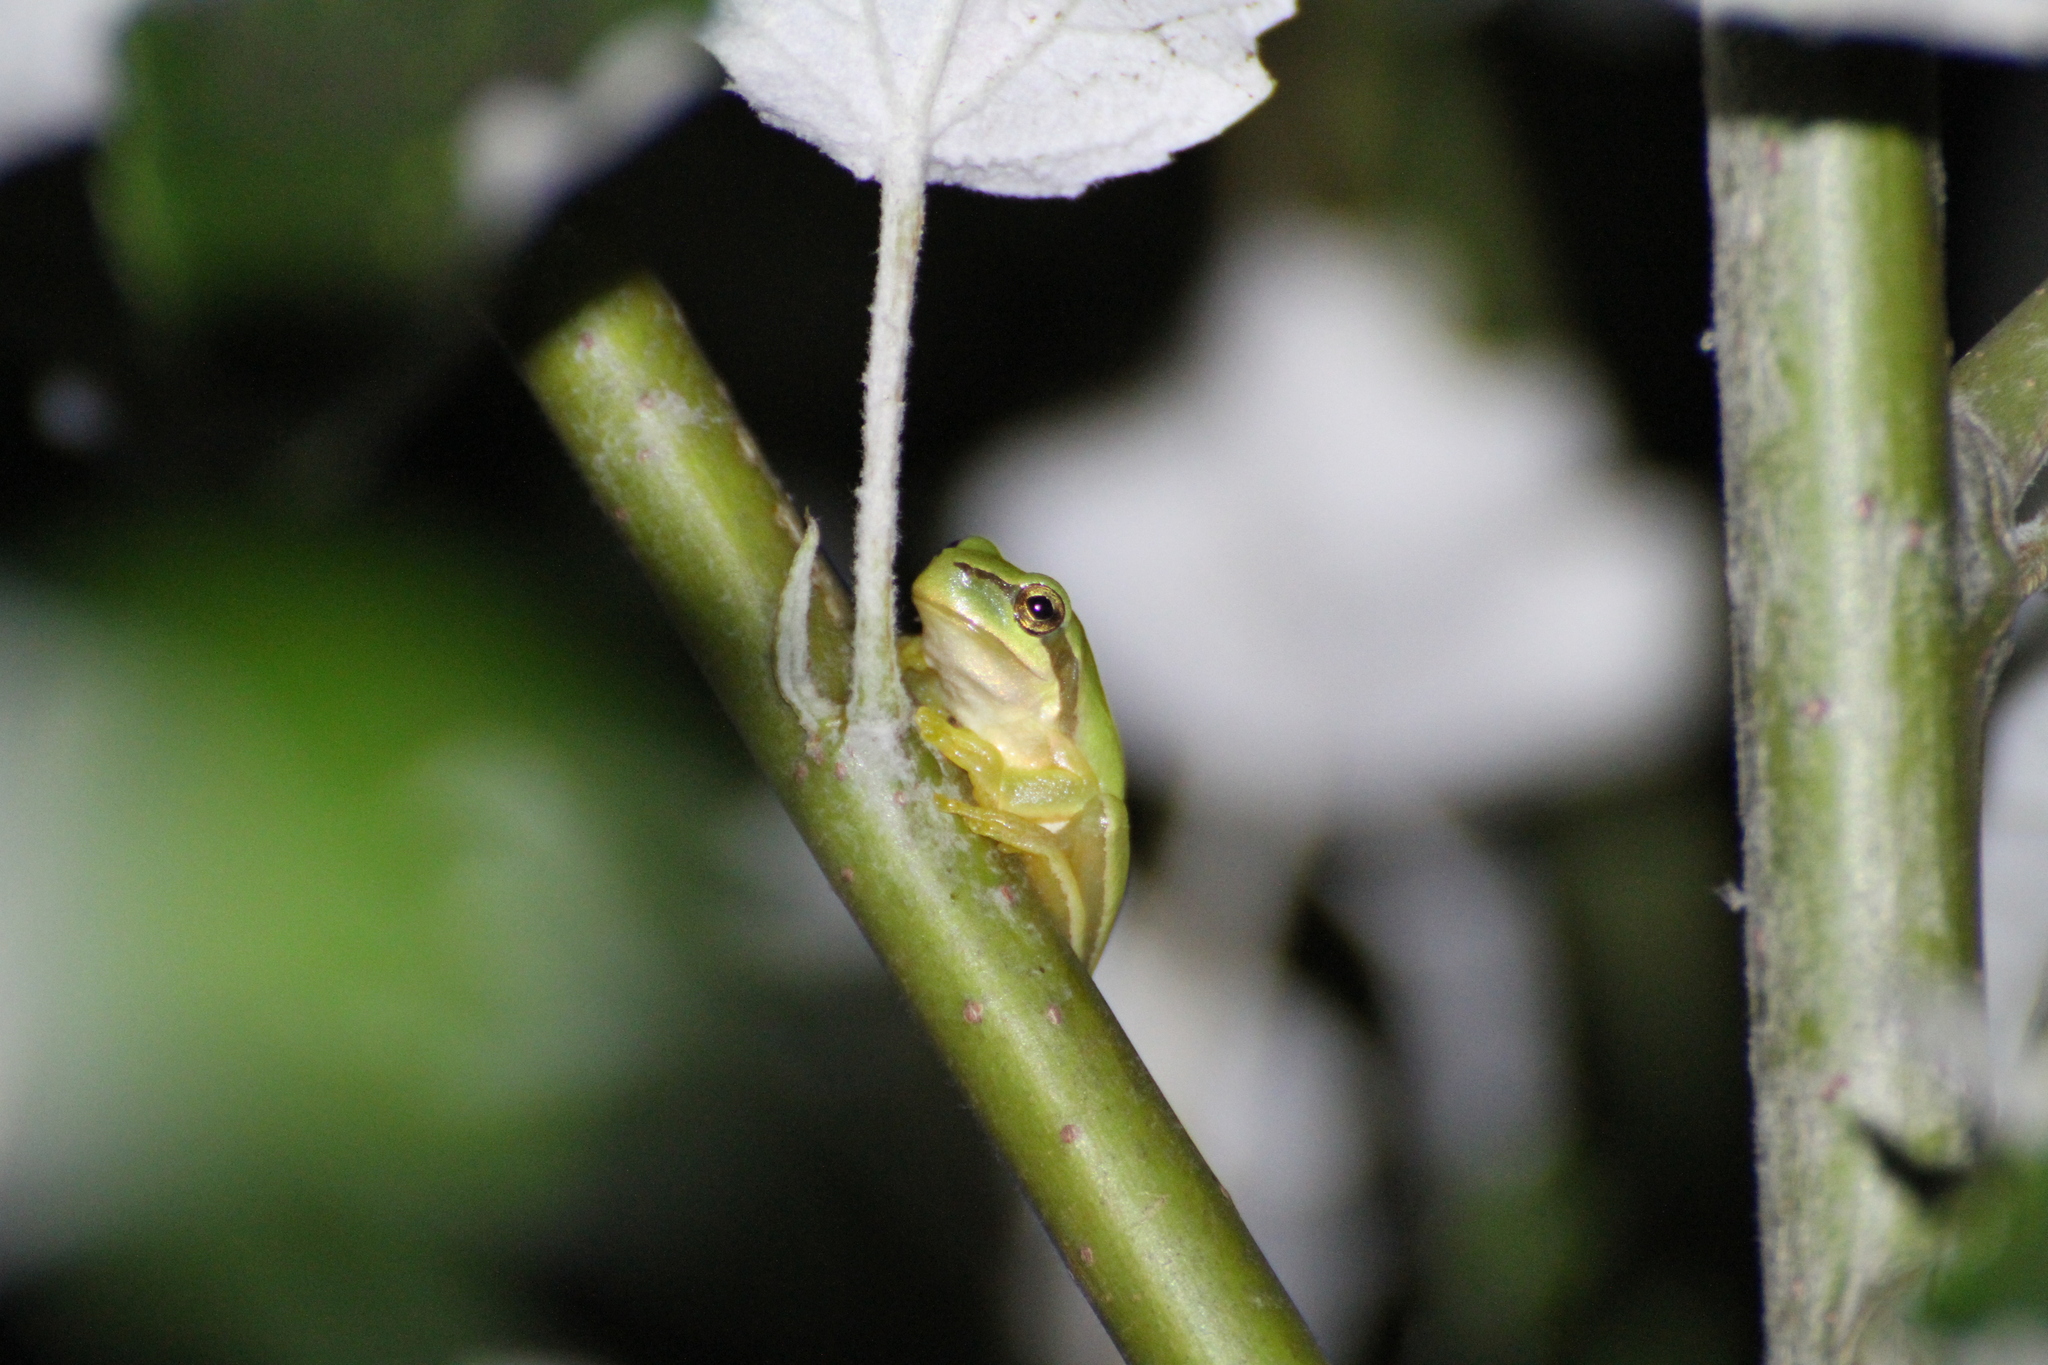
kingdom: Animalia
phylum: Chordata
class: Amphibia
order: Anura
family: Hylidae
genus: Hyla
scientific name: Hyla meridionalis
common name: Stripeless tree frog
